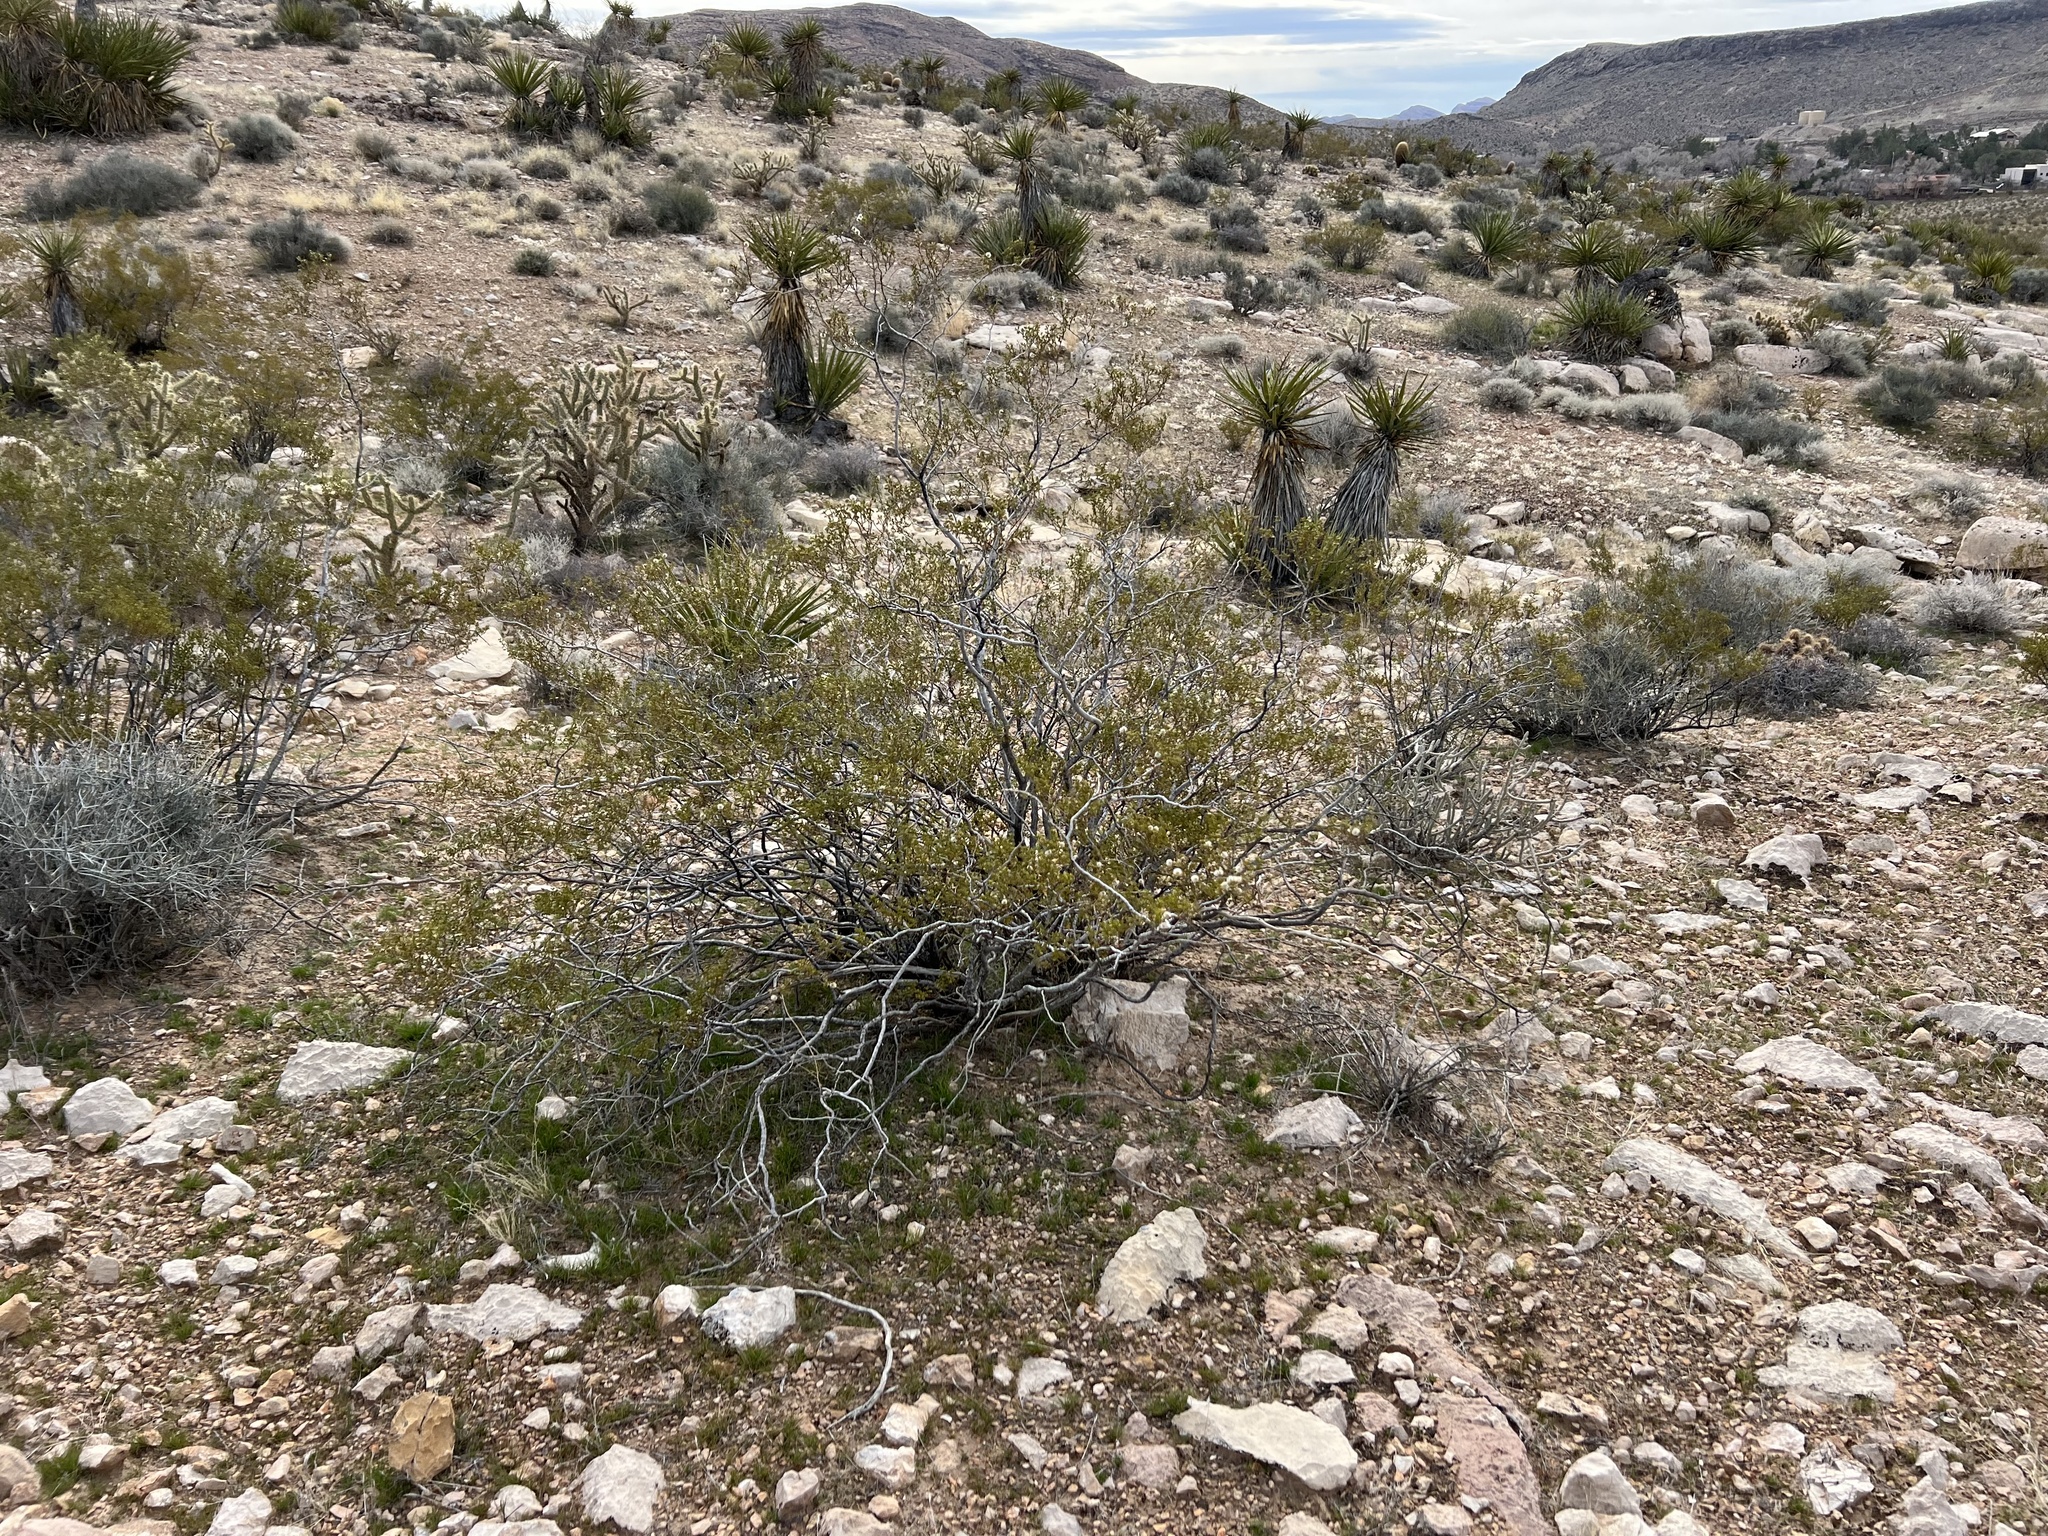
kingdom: Plantae
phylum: Tracheophyta
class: Magnoliopsida
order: Zygophyllales
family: Zygophyllaceae
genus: Larrea
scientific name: Larrea tridentata
